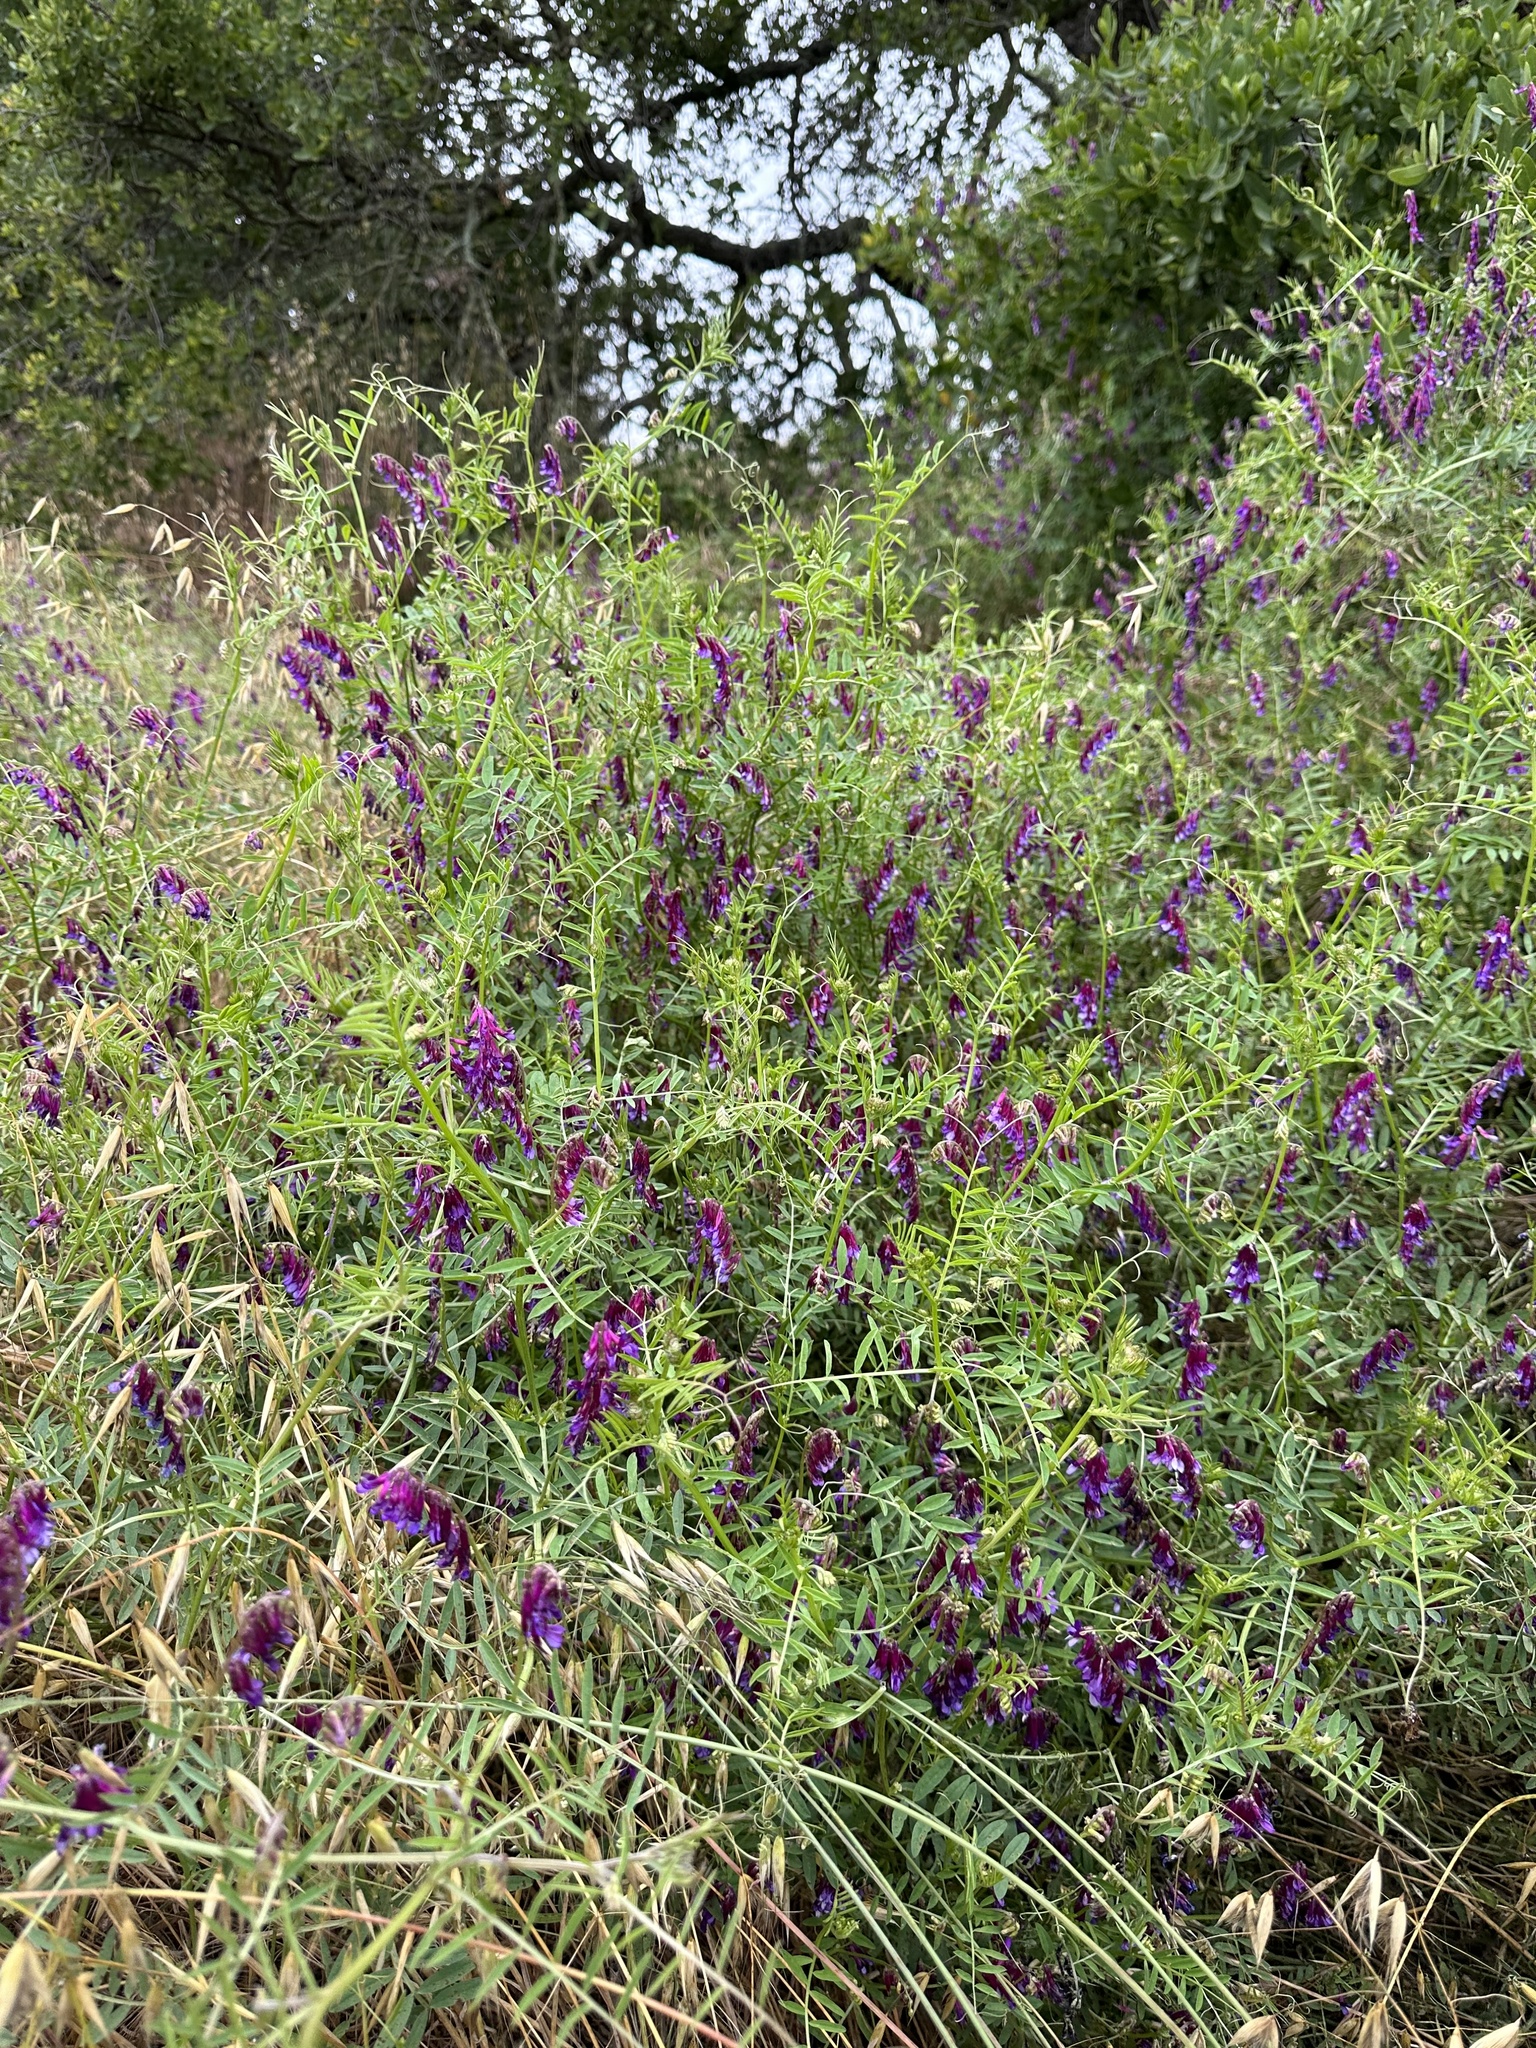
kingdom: Plantae
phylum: Tracheophyta
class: Magnoliopsida
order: Fabales
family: Fabaceae
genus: Vicia
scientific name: Vicia villosa
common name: Fodder vetch
